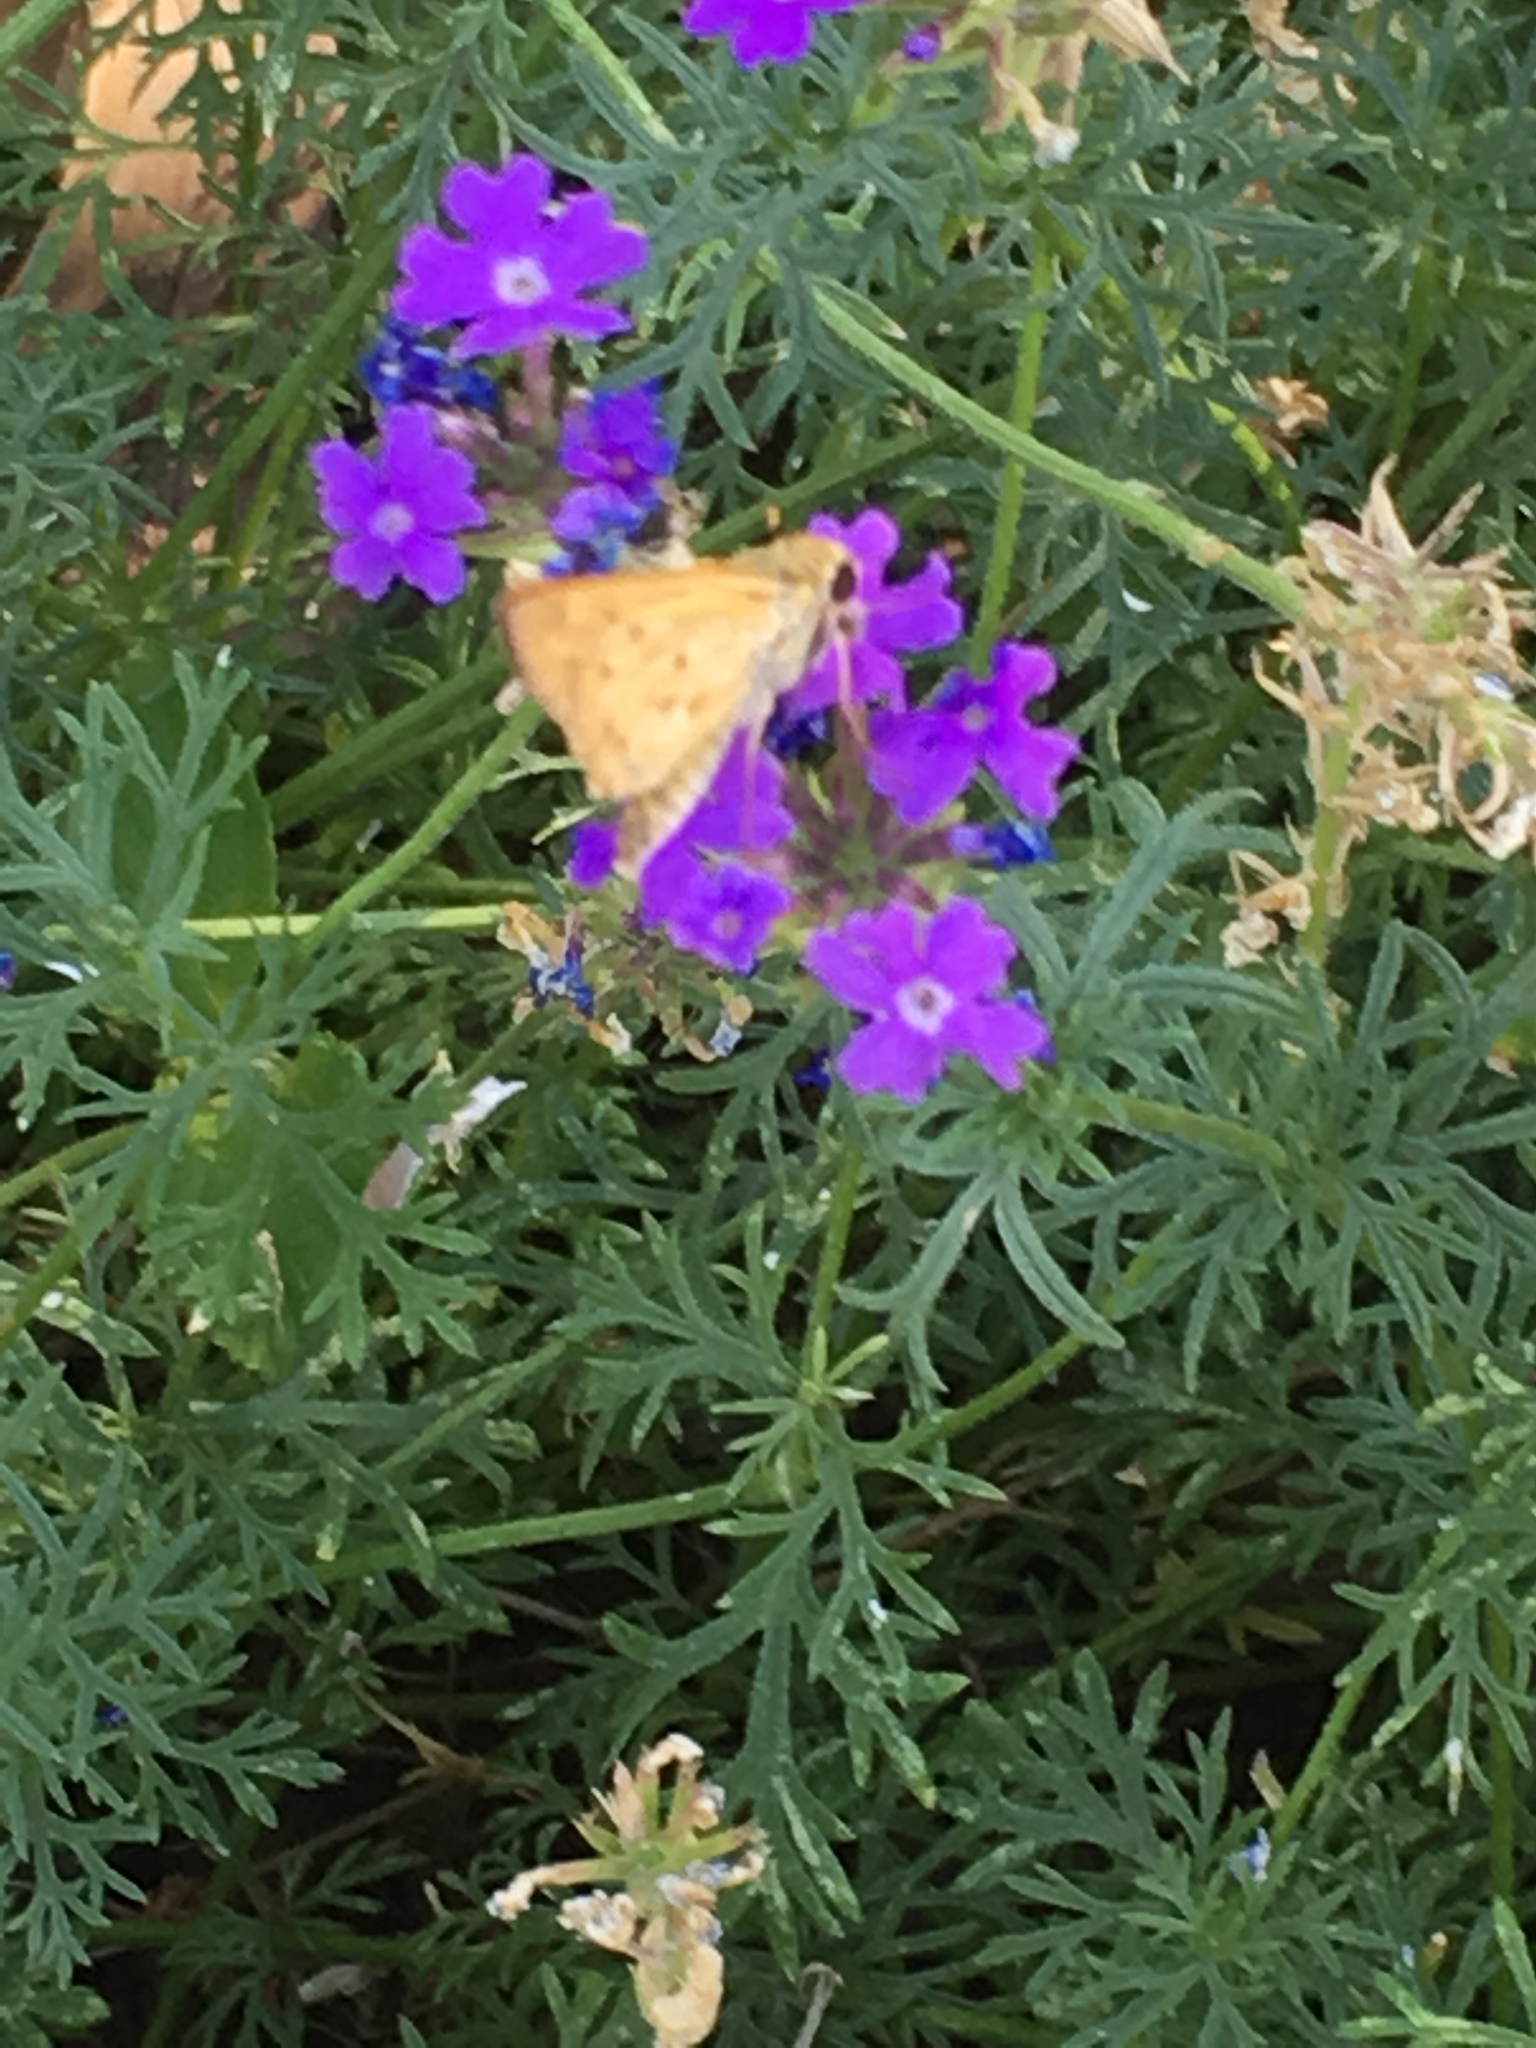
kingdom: Animalia
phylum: Arthropoda
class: Insecta
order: Lepidoptera
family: Hesperiidae
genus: Hylephila
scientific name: Hylephila phyleus
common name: Fiery skipper
